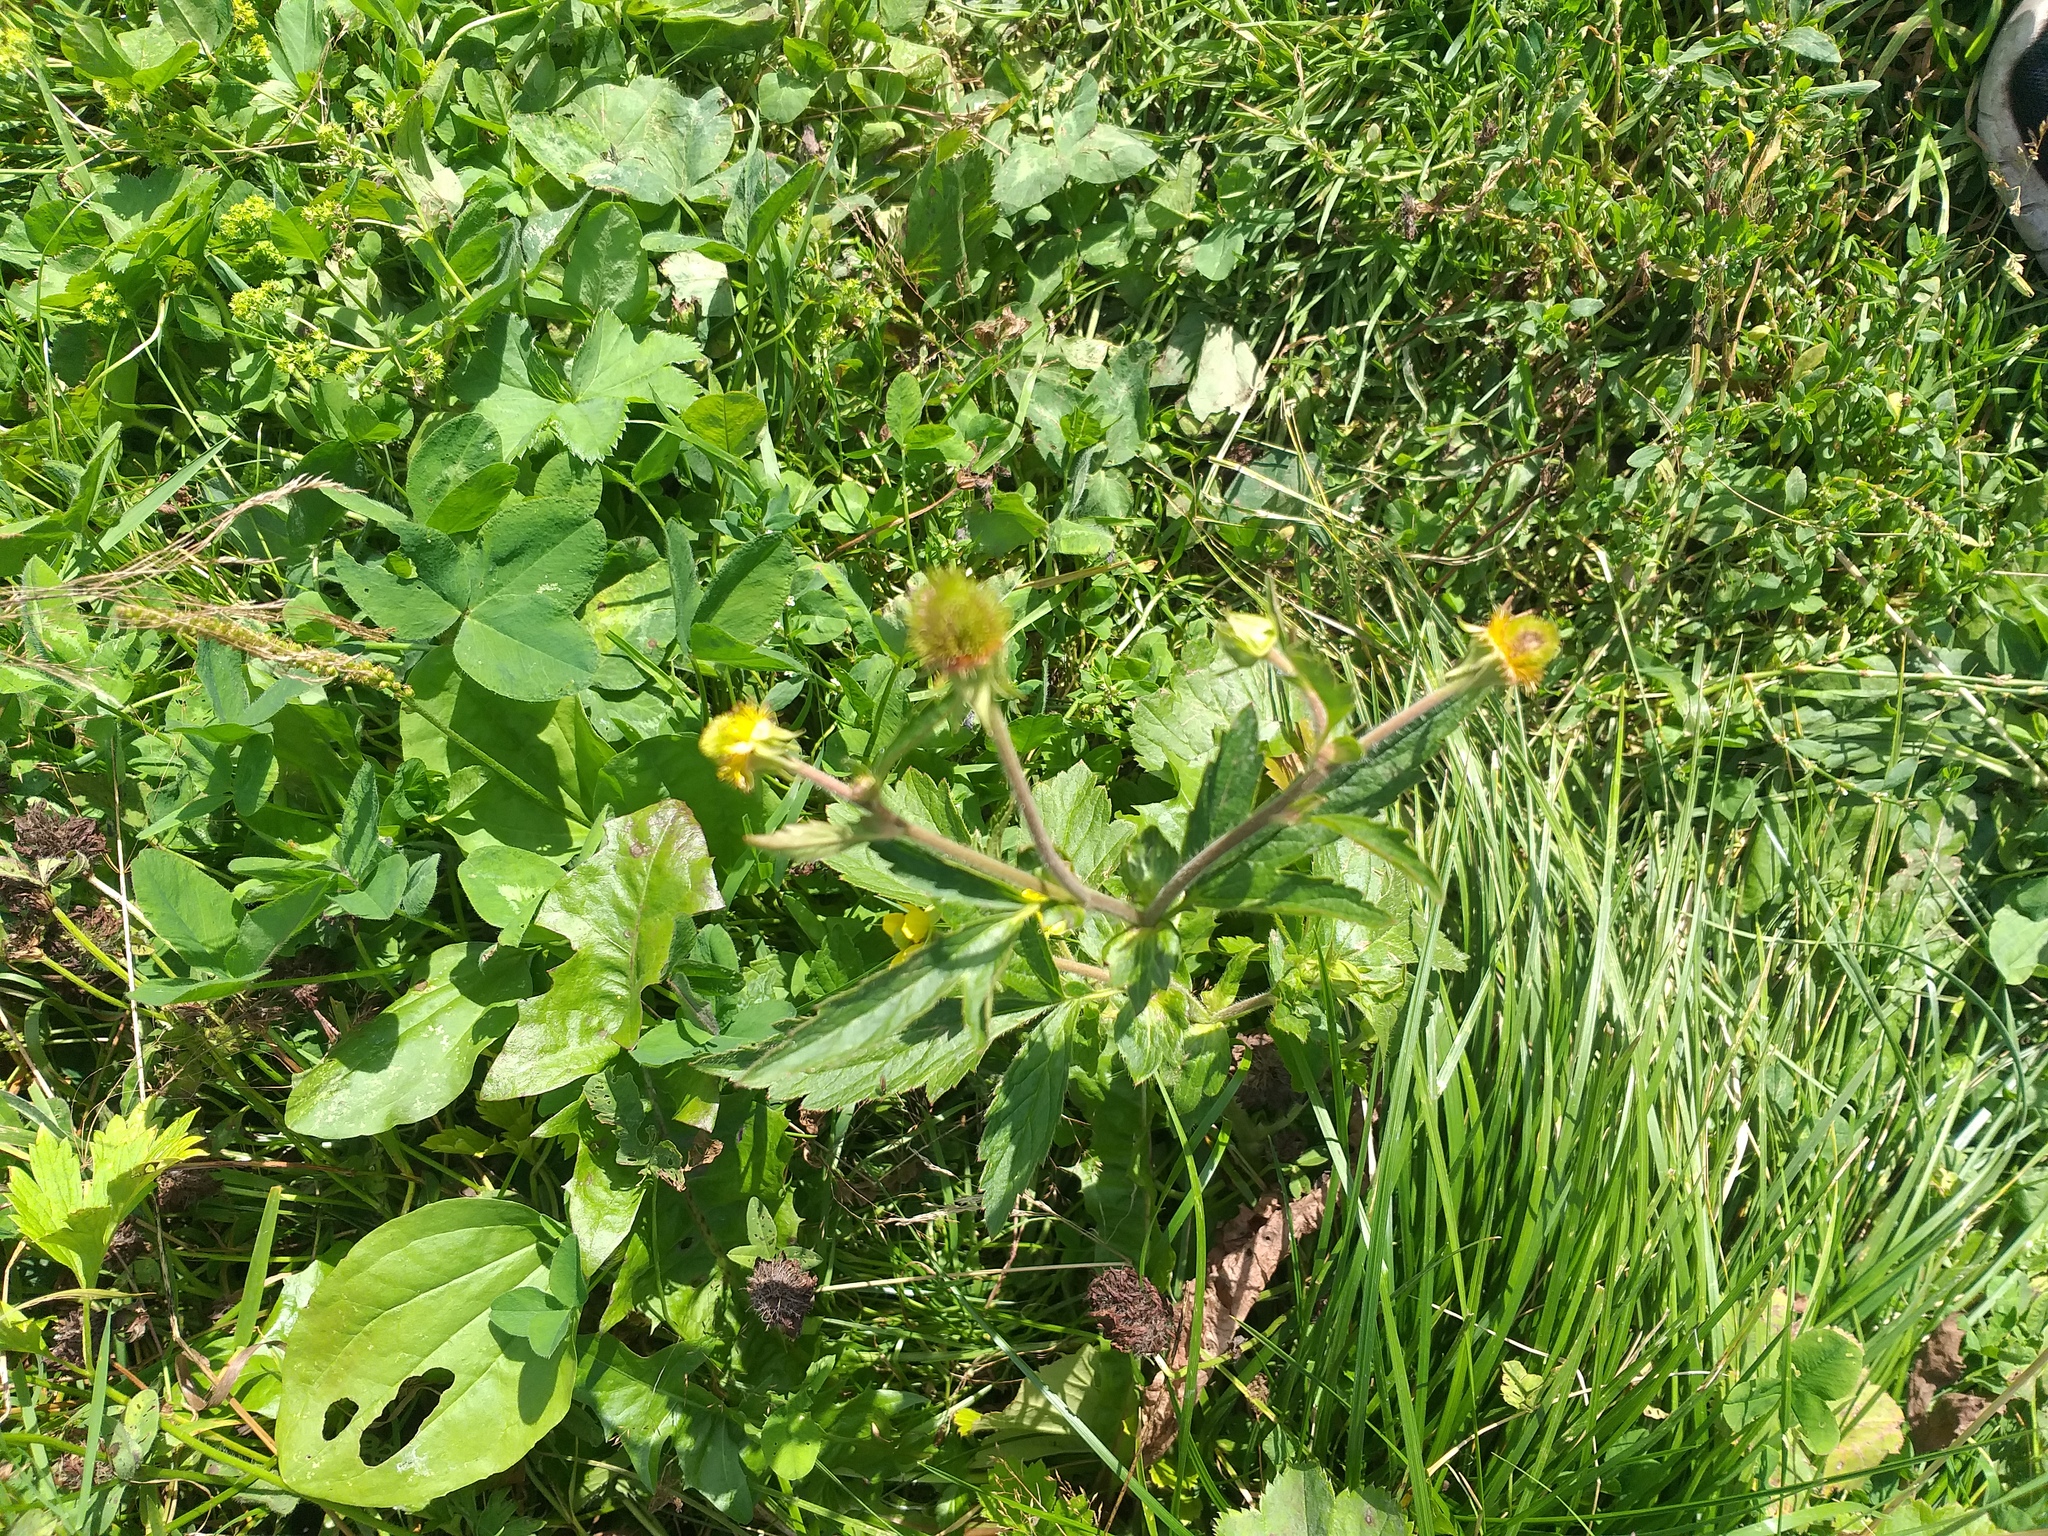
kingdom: Plantae
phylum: Tracheophyta
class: Magnoliopsida
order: Rosales
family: Rosaceae
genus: Geum
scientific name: Geum aleppicum
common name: Yellow avens
